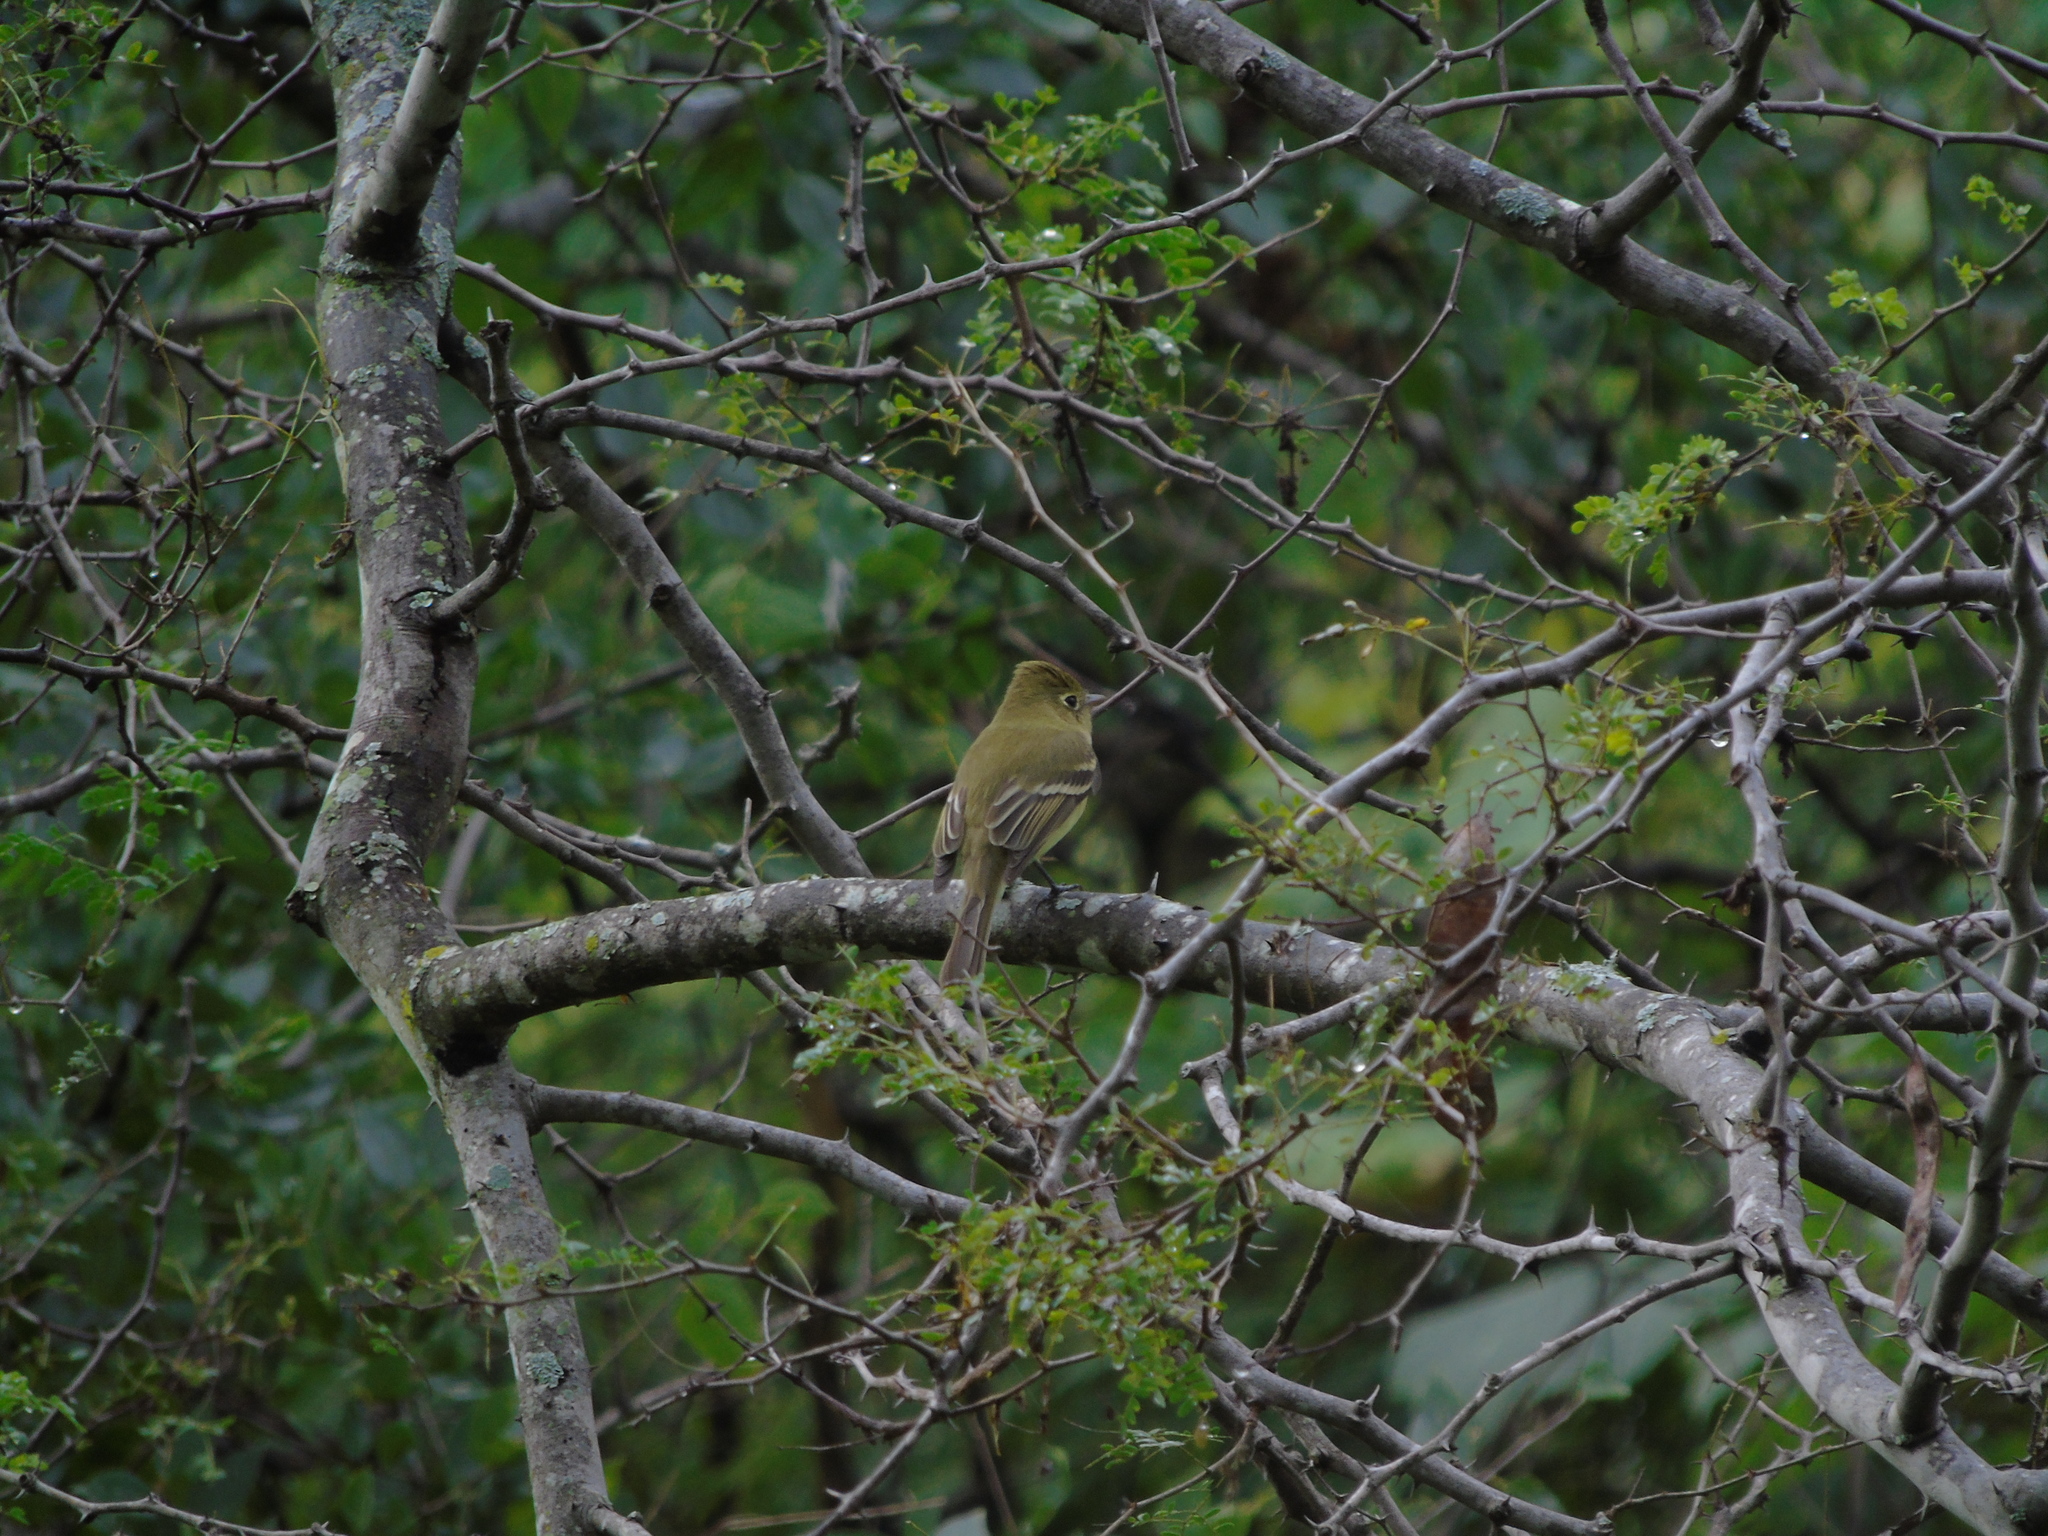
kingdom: Animalia
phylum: Chordata
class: Aves
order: Passeriformes
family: Tyrannidae
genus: Empidonax
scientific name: Empidonax difficilis
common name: Pacific-slope flycatcher
